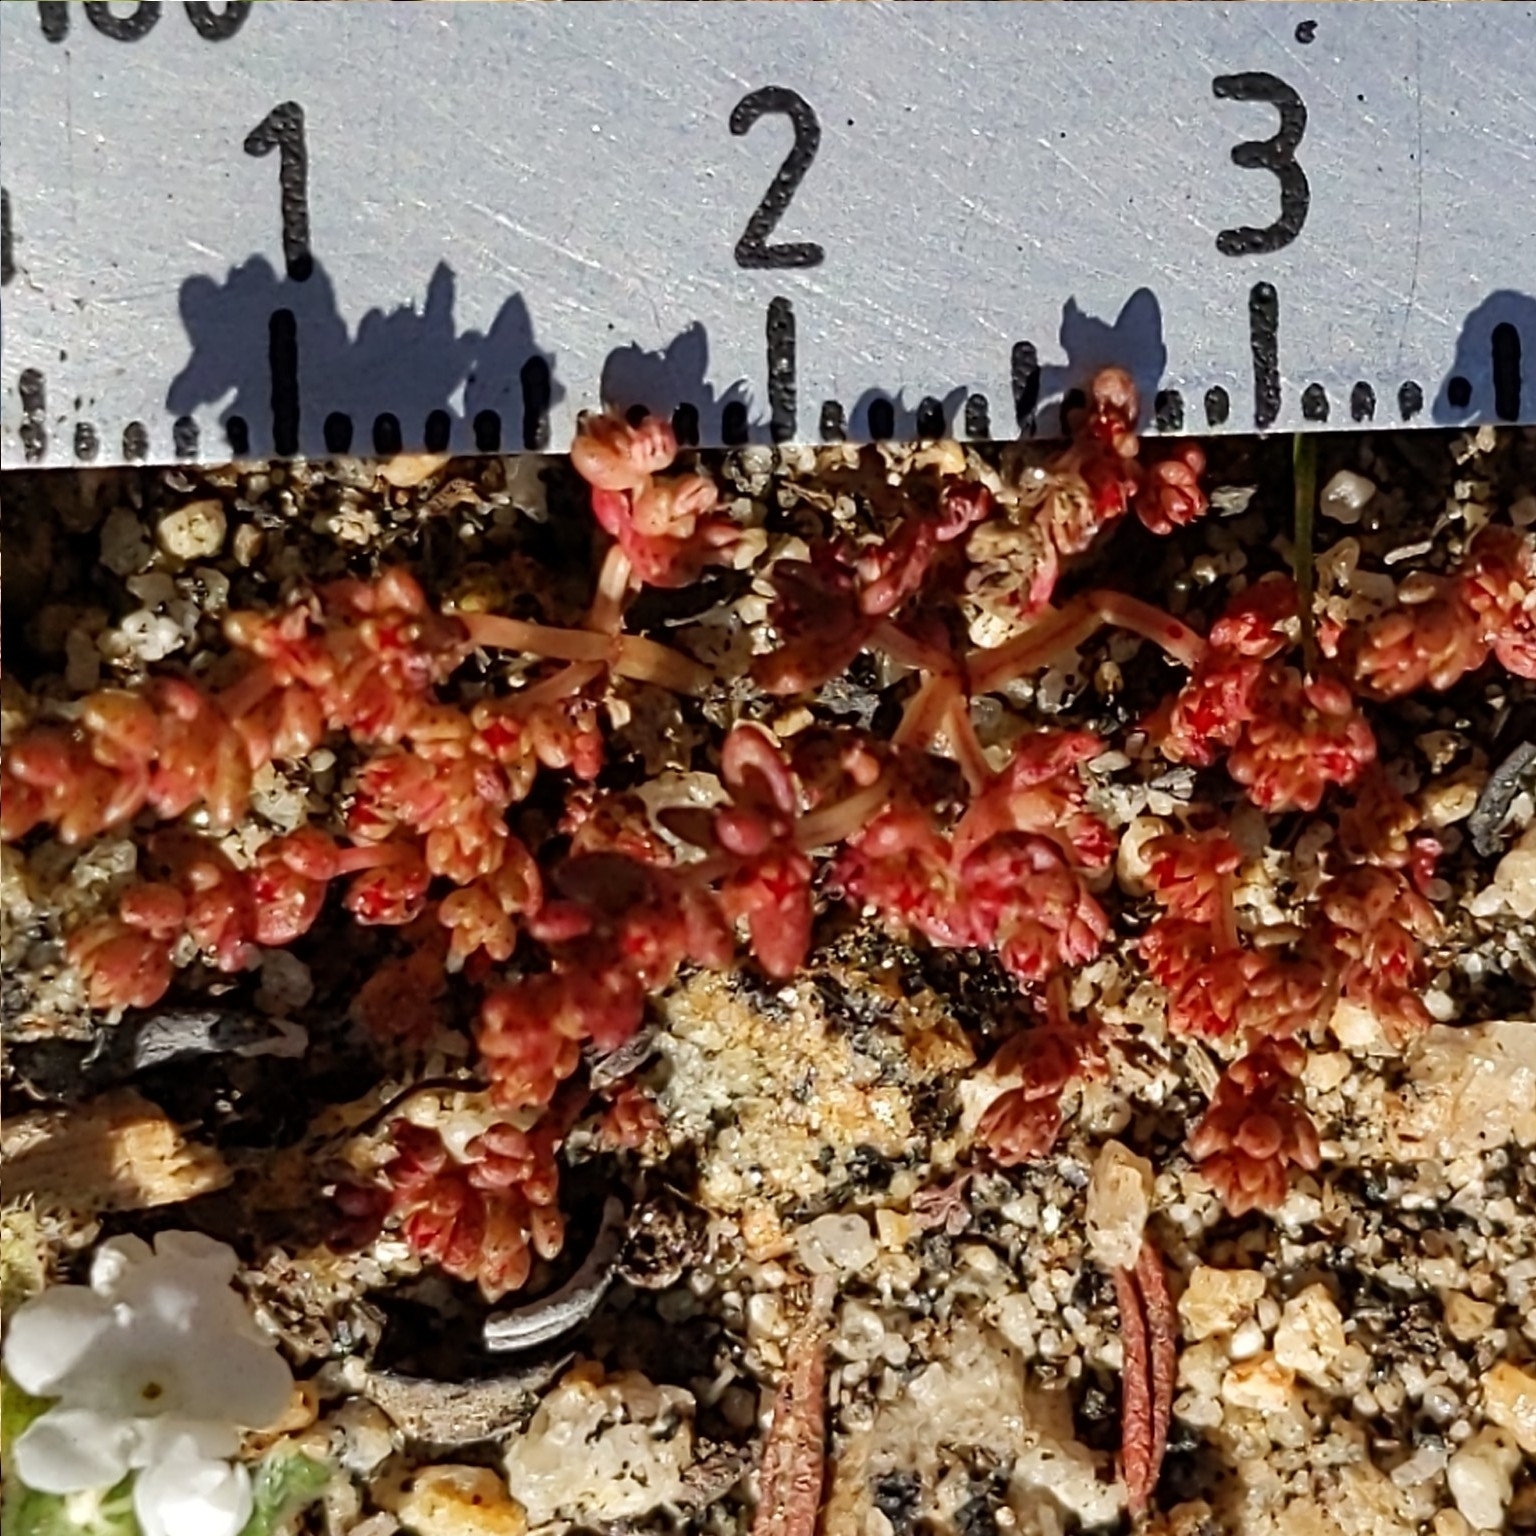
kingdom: Plantae
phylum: Tracheophyta
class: Magnoliopsida
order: Saxifragales
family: Crassulaceae
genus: Crassula
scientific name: Crassula connata
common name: Erect pygmyweed
